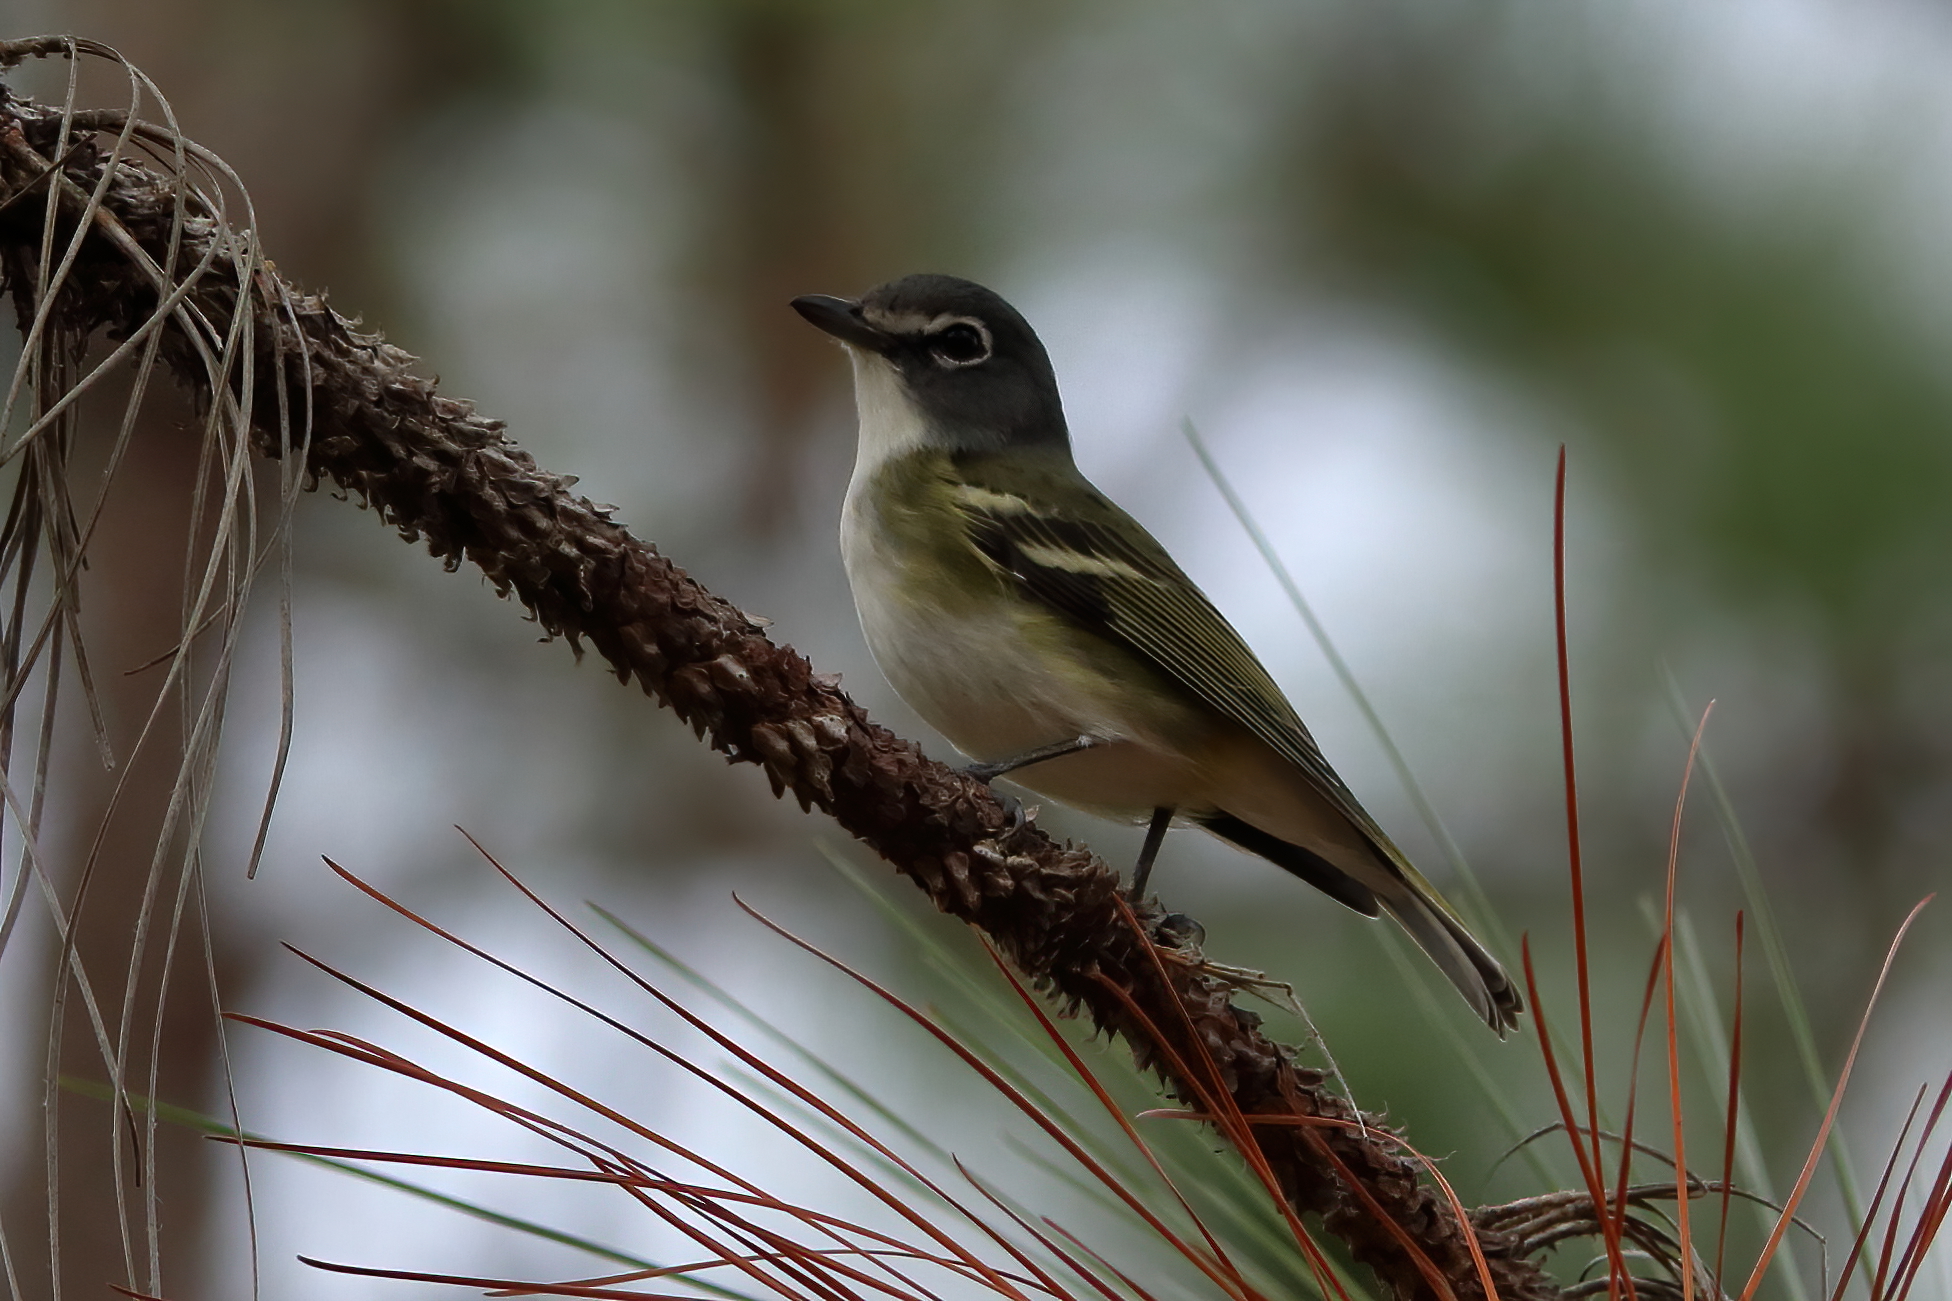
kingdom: Animalia
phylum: Chordata
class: Aves
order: Passeriformes
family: Vireonidae
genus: Vireo
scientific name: Vireo solitarius
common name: Blue-headed vireo
